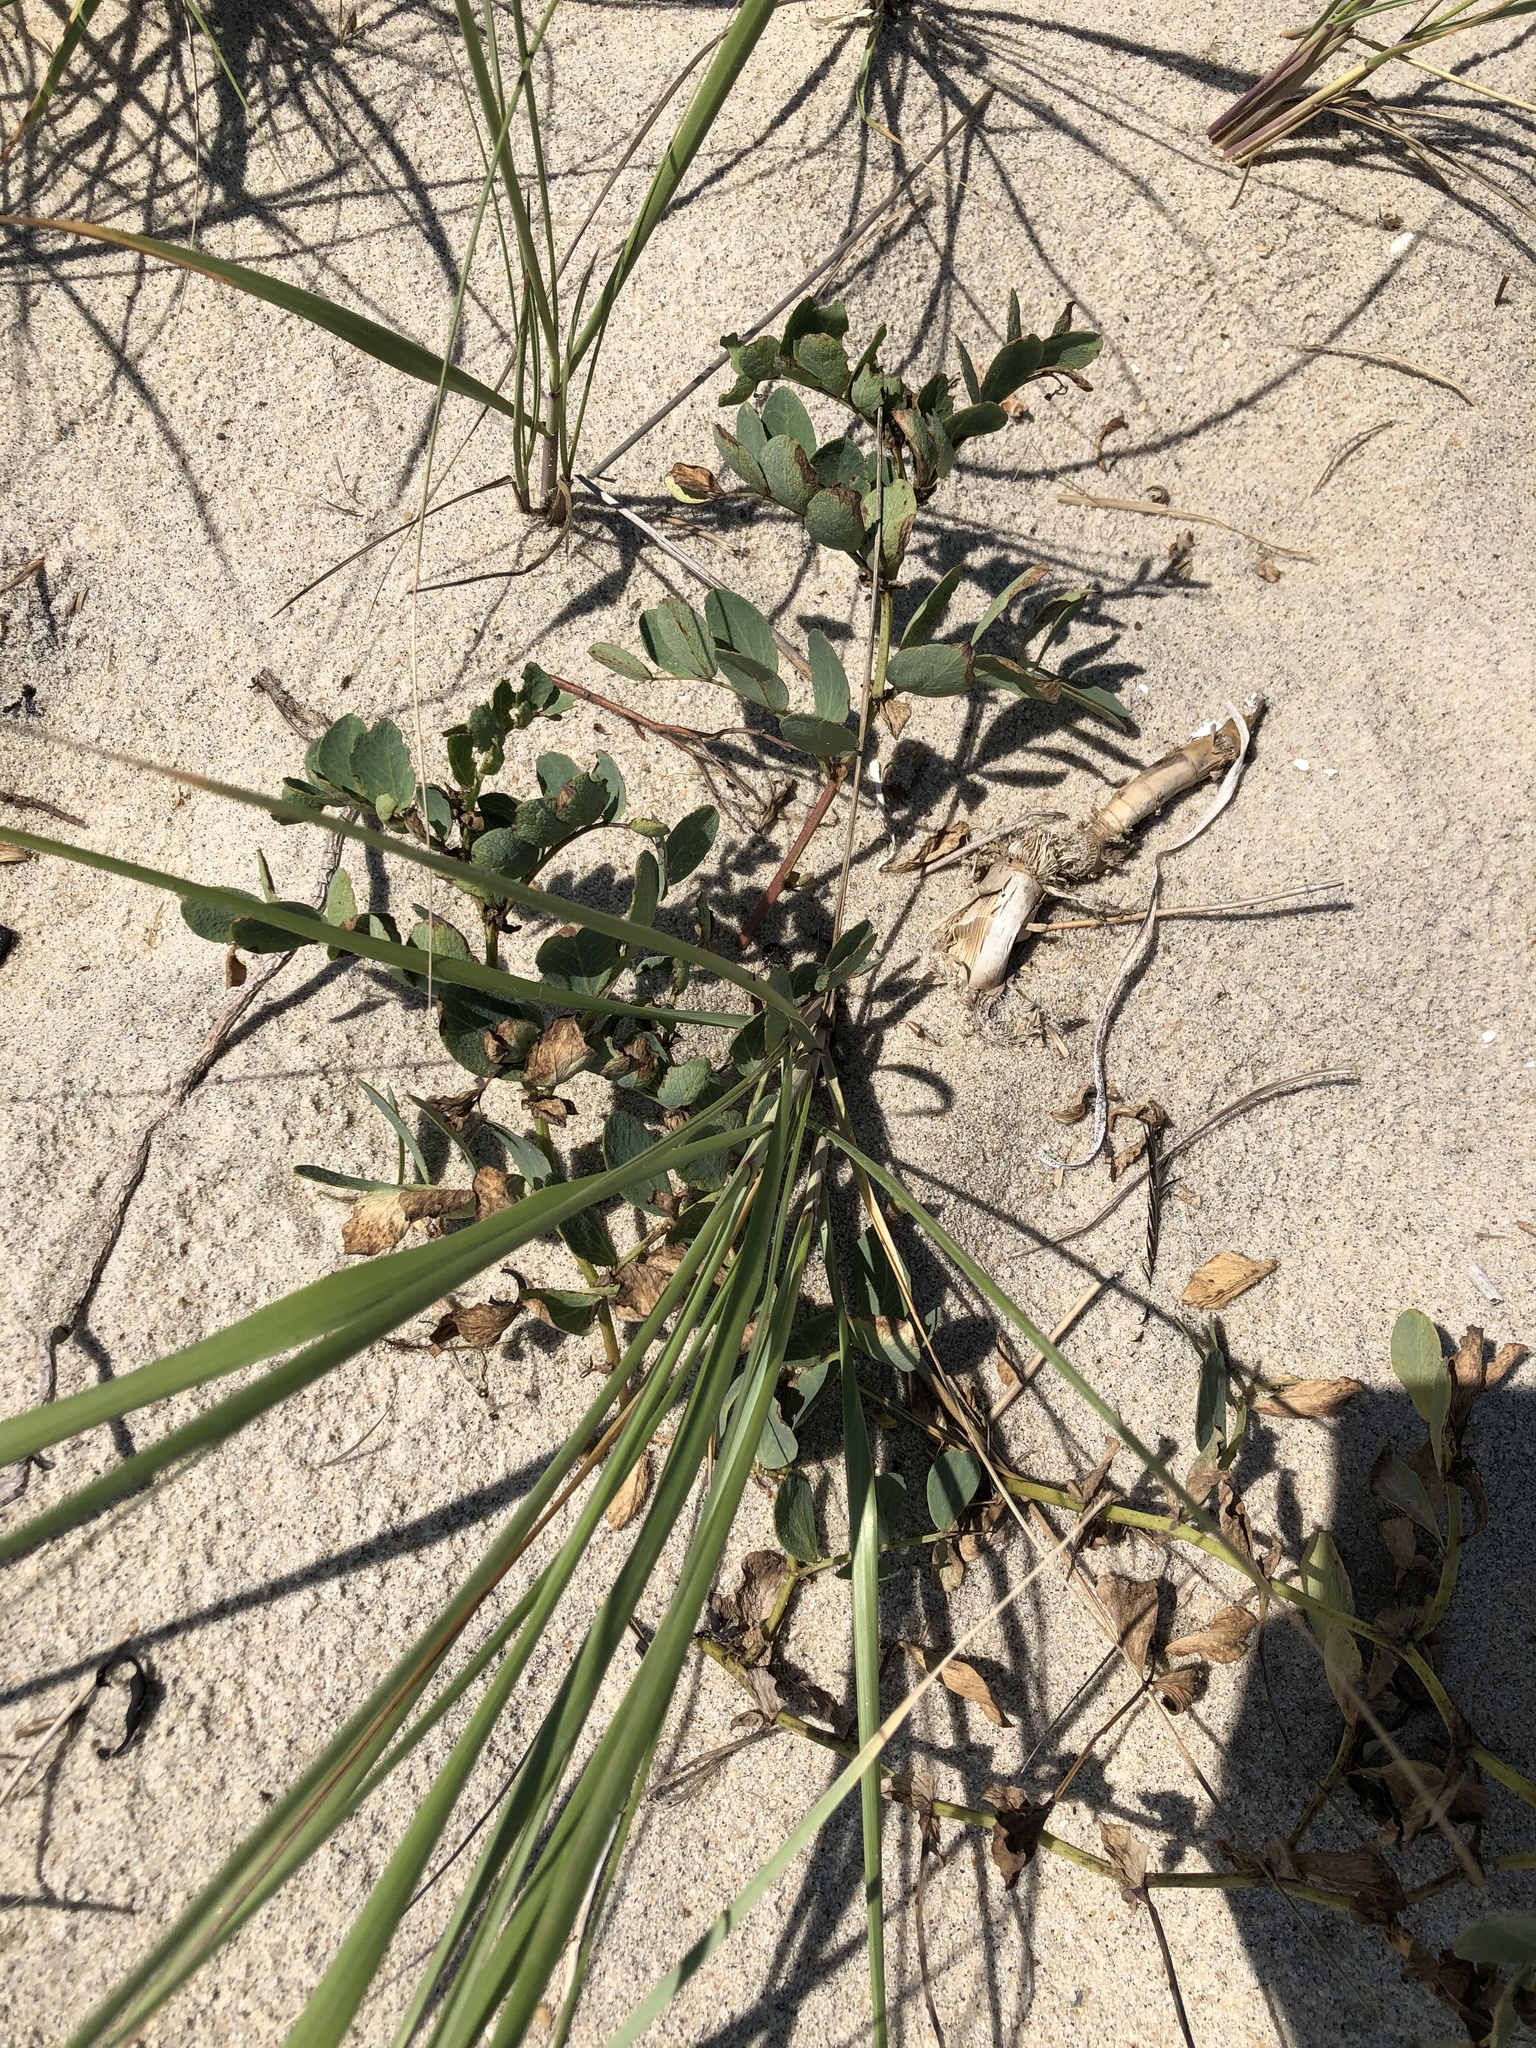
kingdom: Plantae
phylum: Tracheophyta
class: Magnoliopsida
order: Fabales
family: Fabaceae
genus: Lathyrus
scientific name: Lathyrus japonicus
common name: Sea pea
